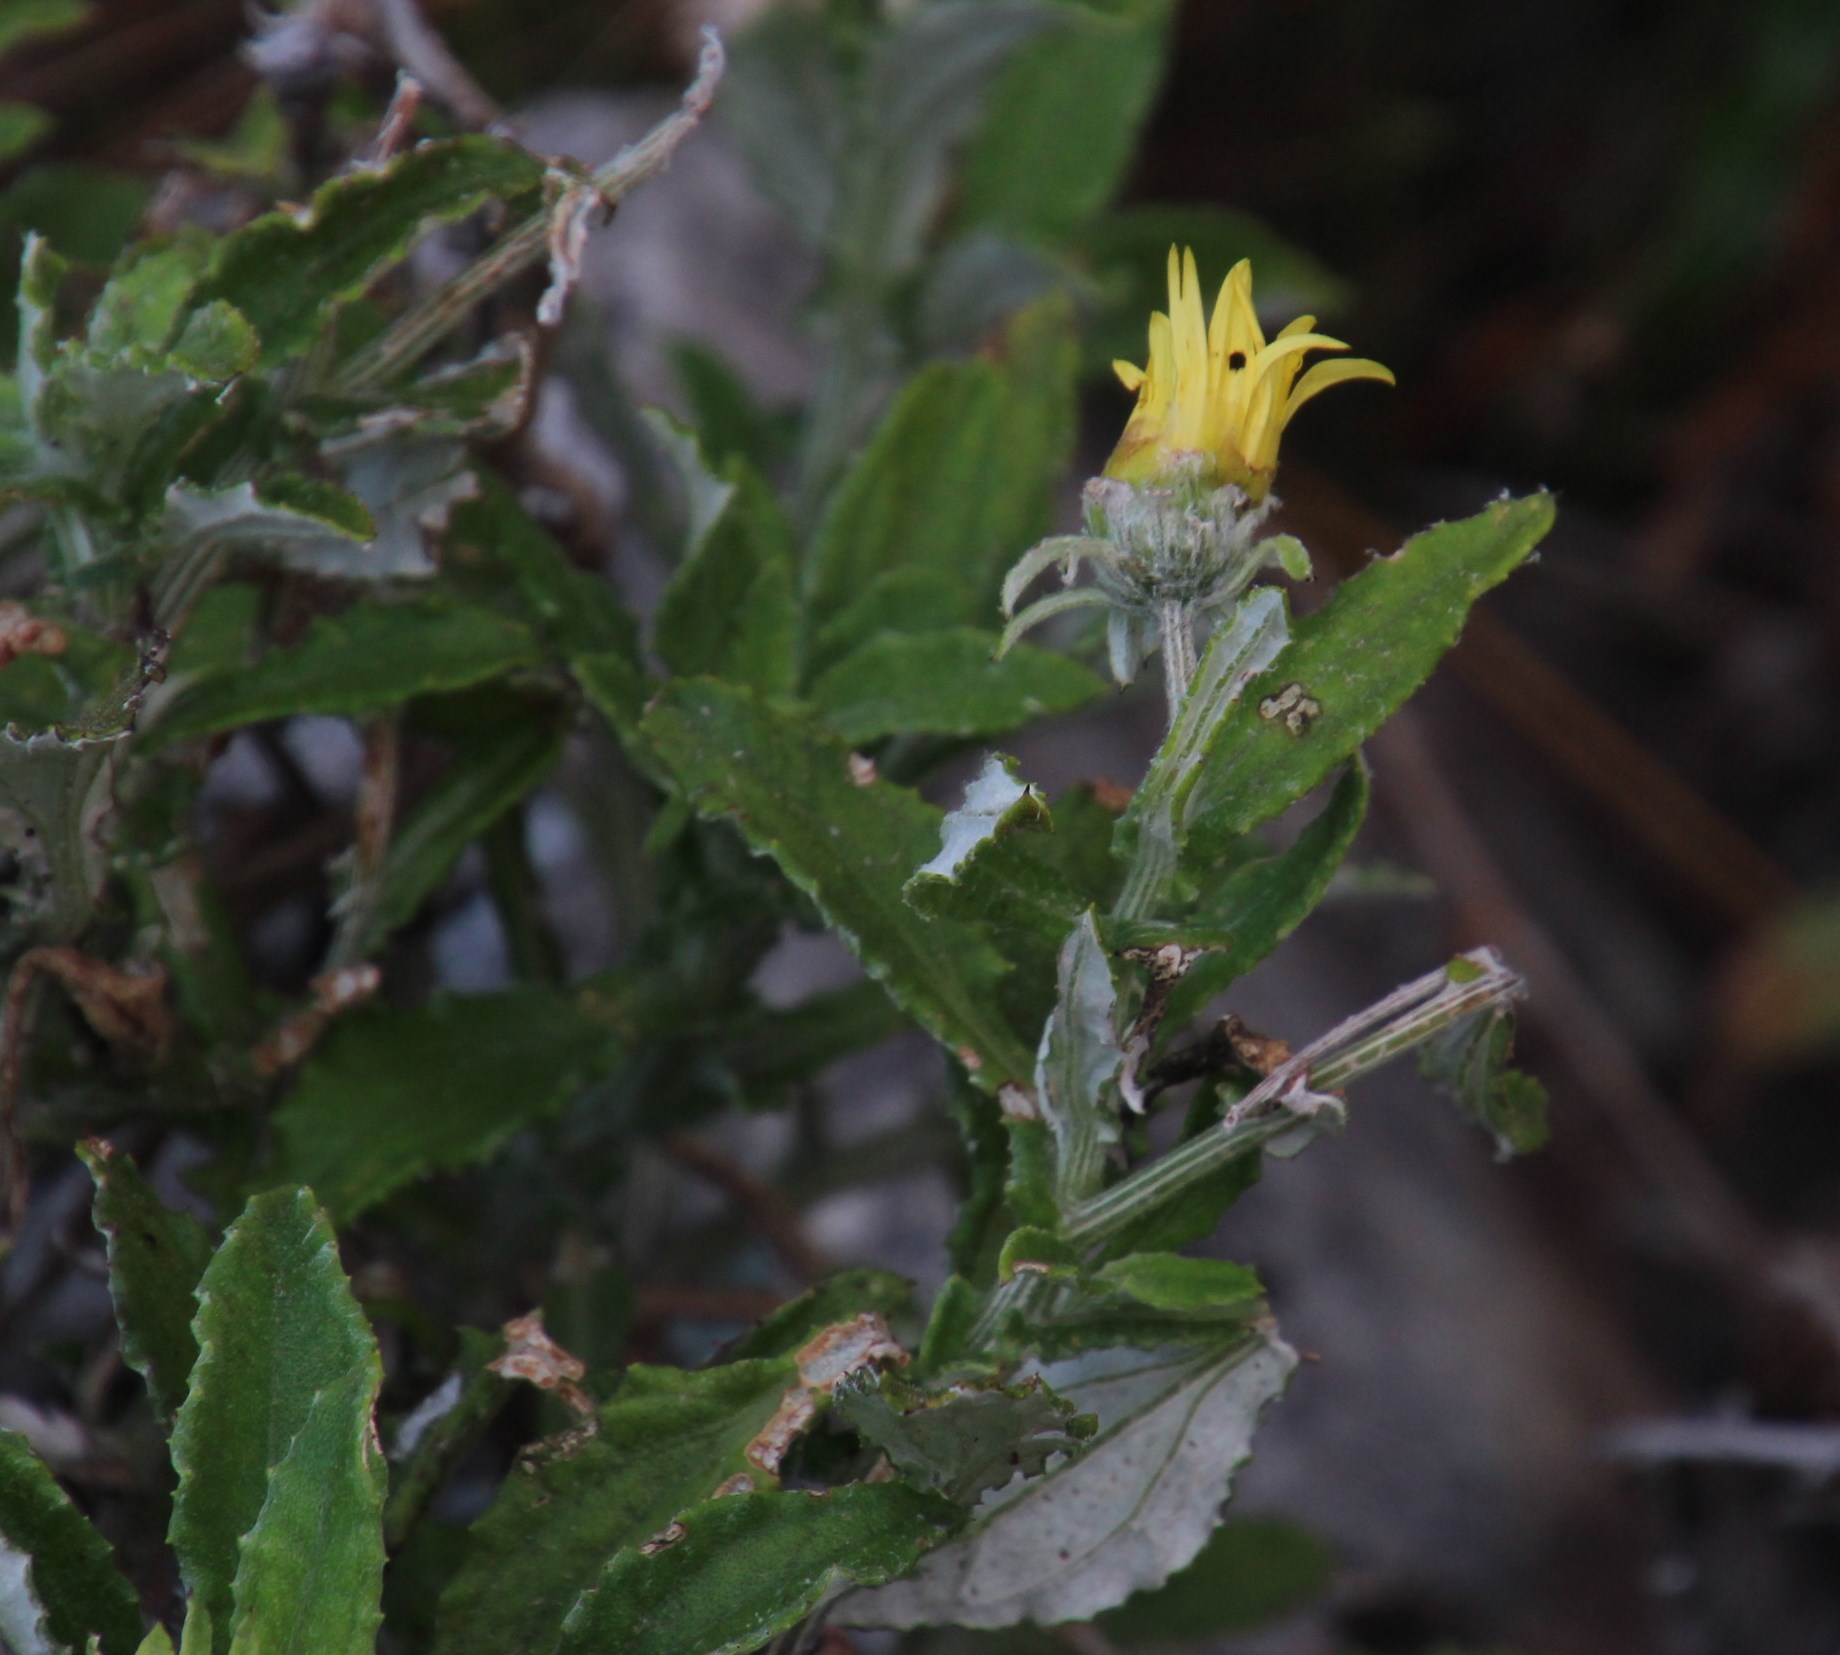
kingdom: Plantae
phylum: Tracheophyta
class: Magnoliopsida
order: Asterales
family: Asteraceae
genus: Arctotis
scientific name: Arctotis scabra
